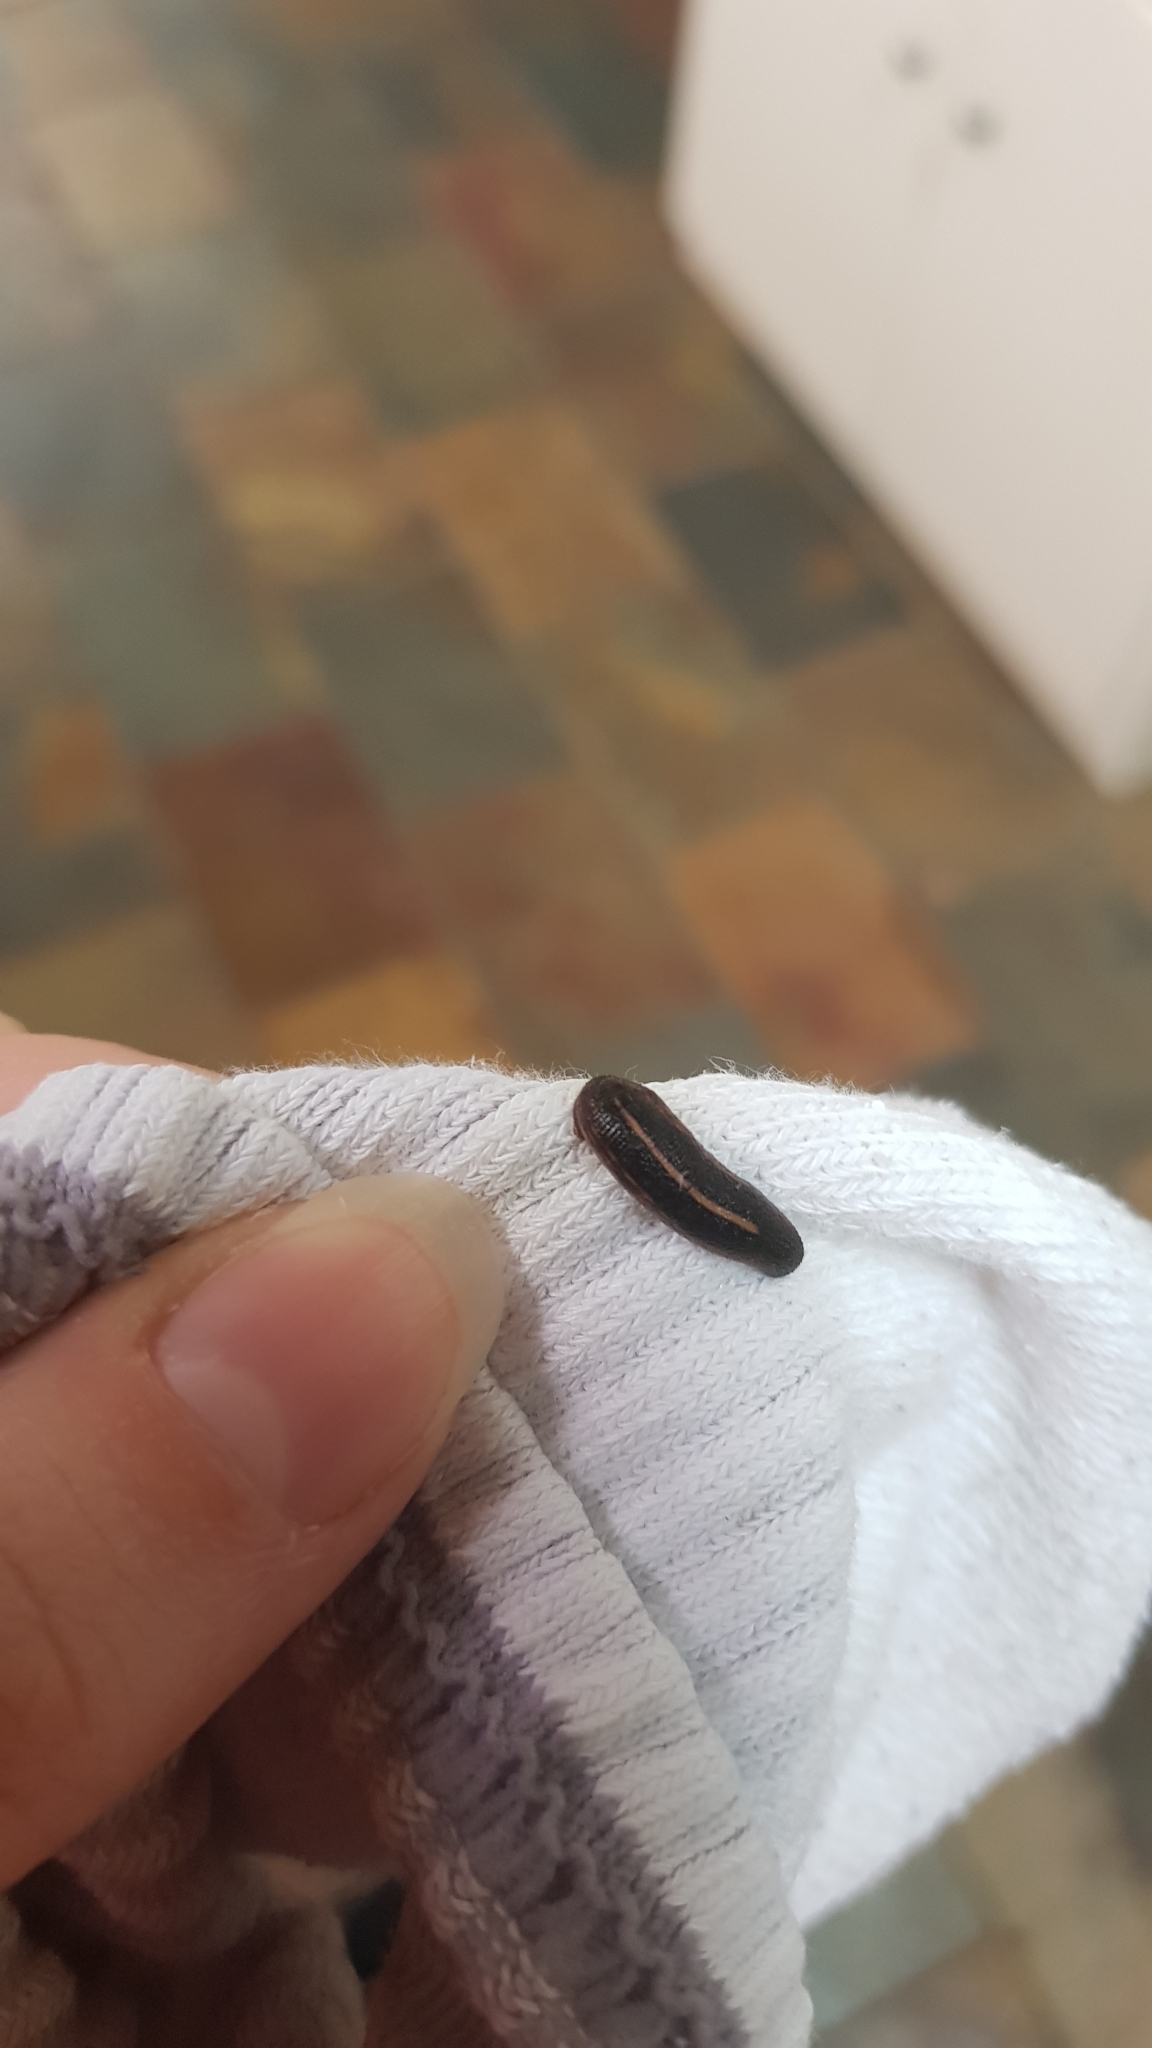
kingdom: Animalia
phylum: Annelida
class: Clitellata
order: Arhynchobdellida
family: Haemadipsidae
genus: Chtonobdella
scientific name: Chtonobdella limbata
